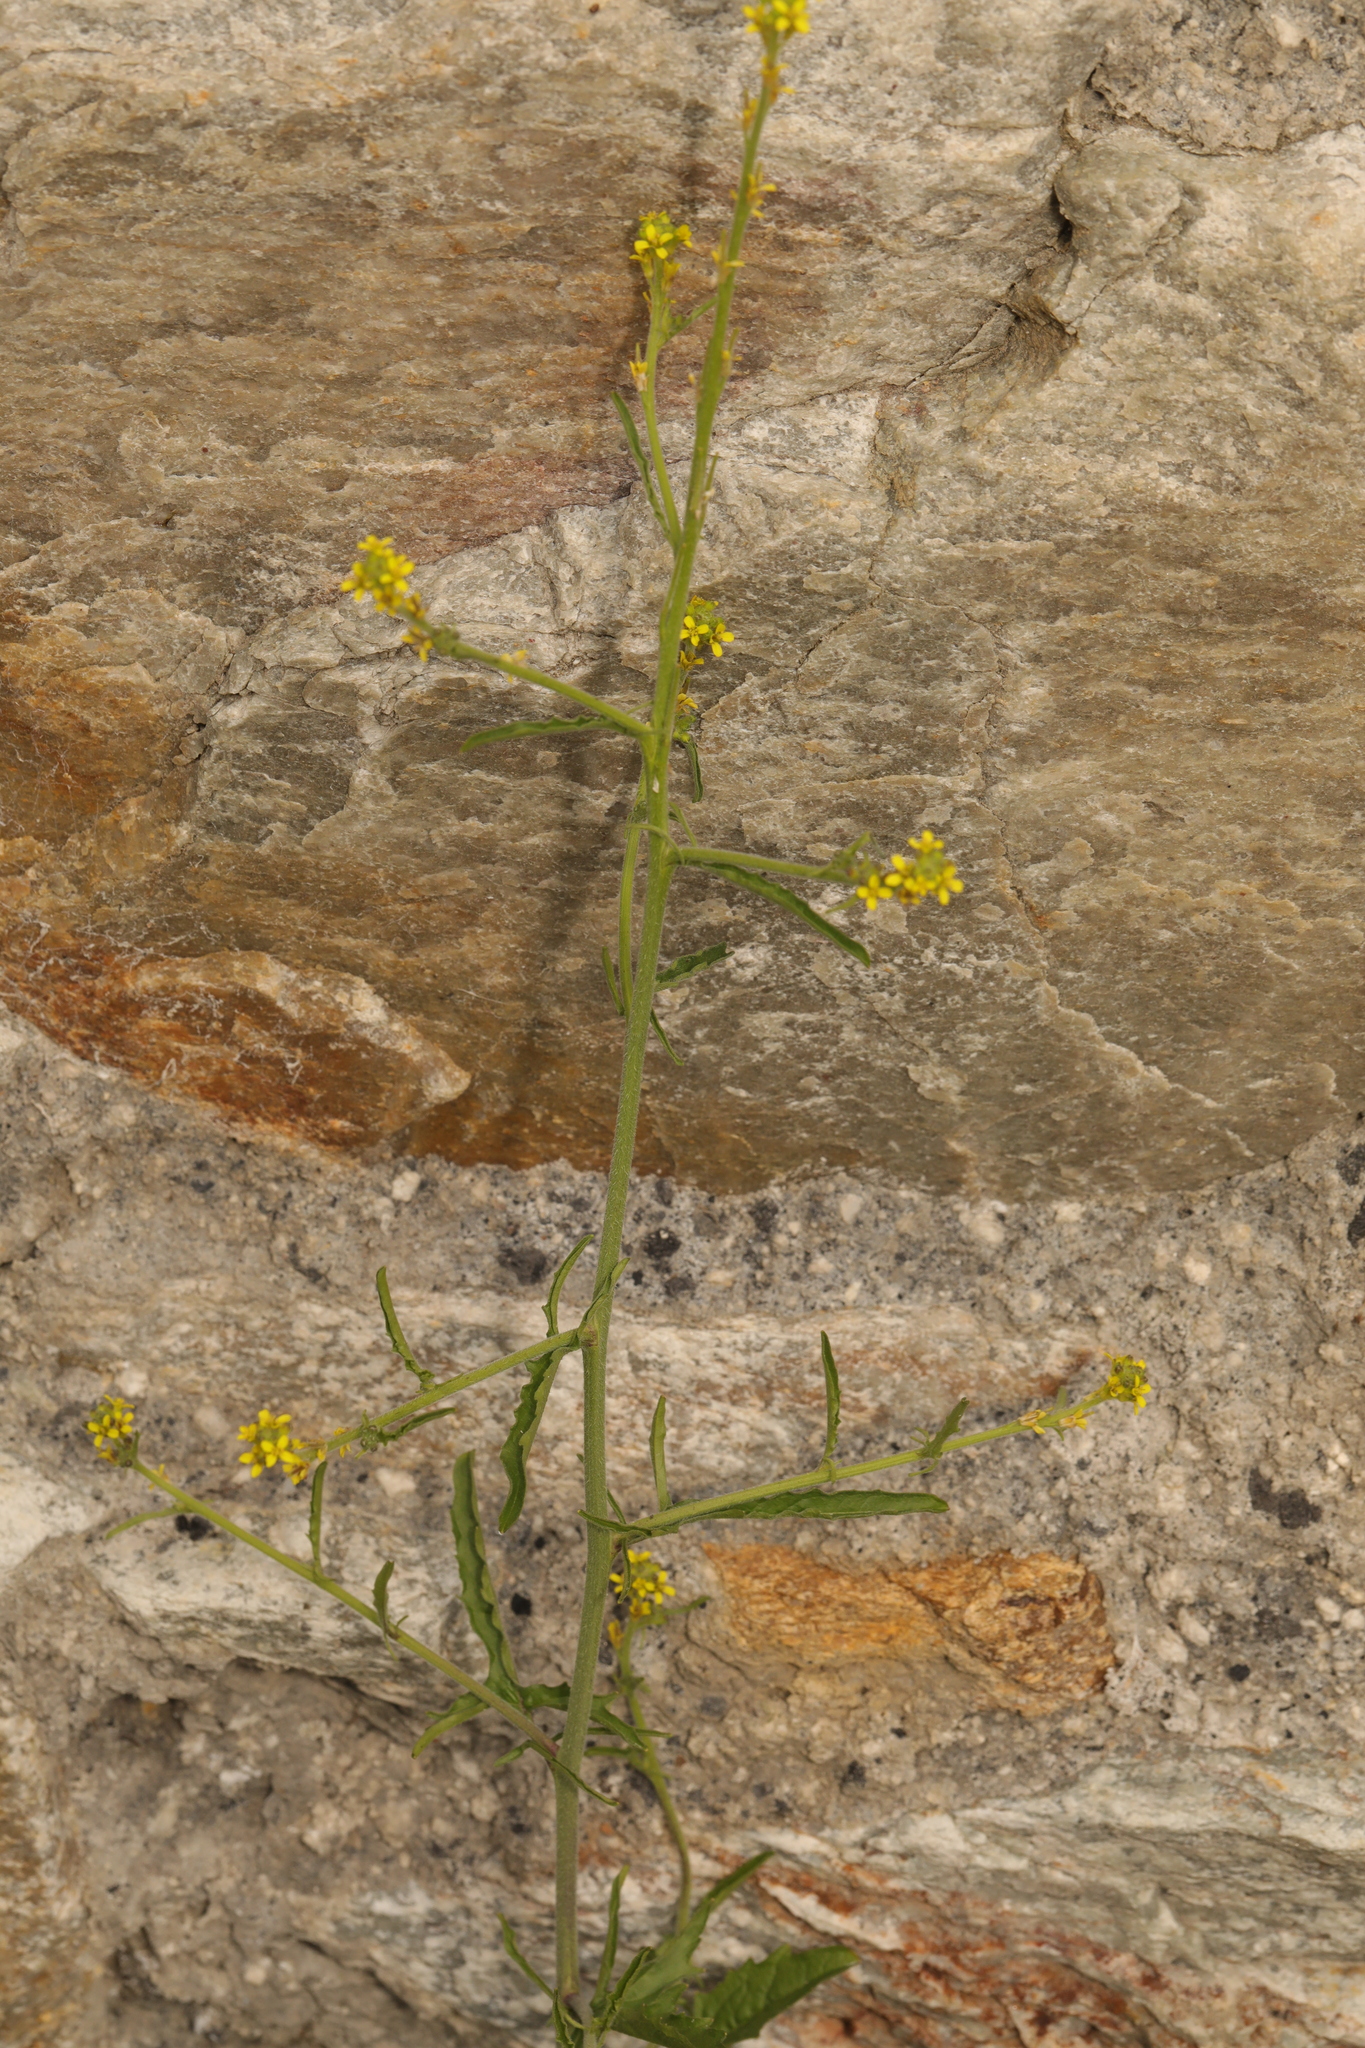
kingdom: Plantae
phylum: Tracheophyta
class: Magnoliopsida
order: Brassicales
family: Brassicaceae
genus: Sisymbrium
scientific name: Sisymbrium officinale
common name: Hedge mustard
